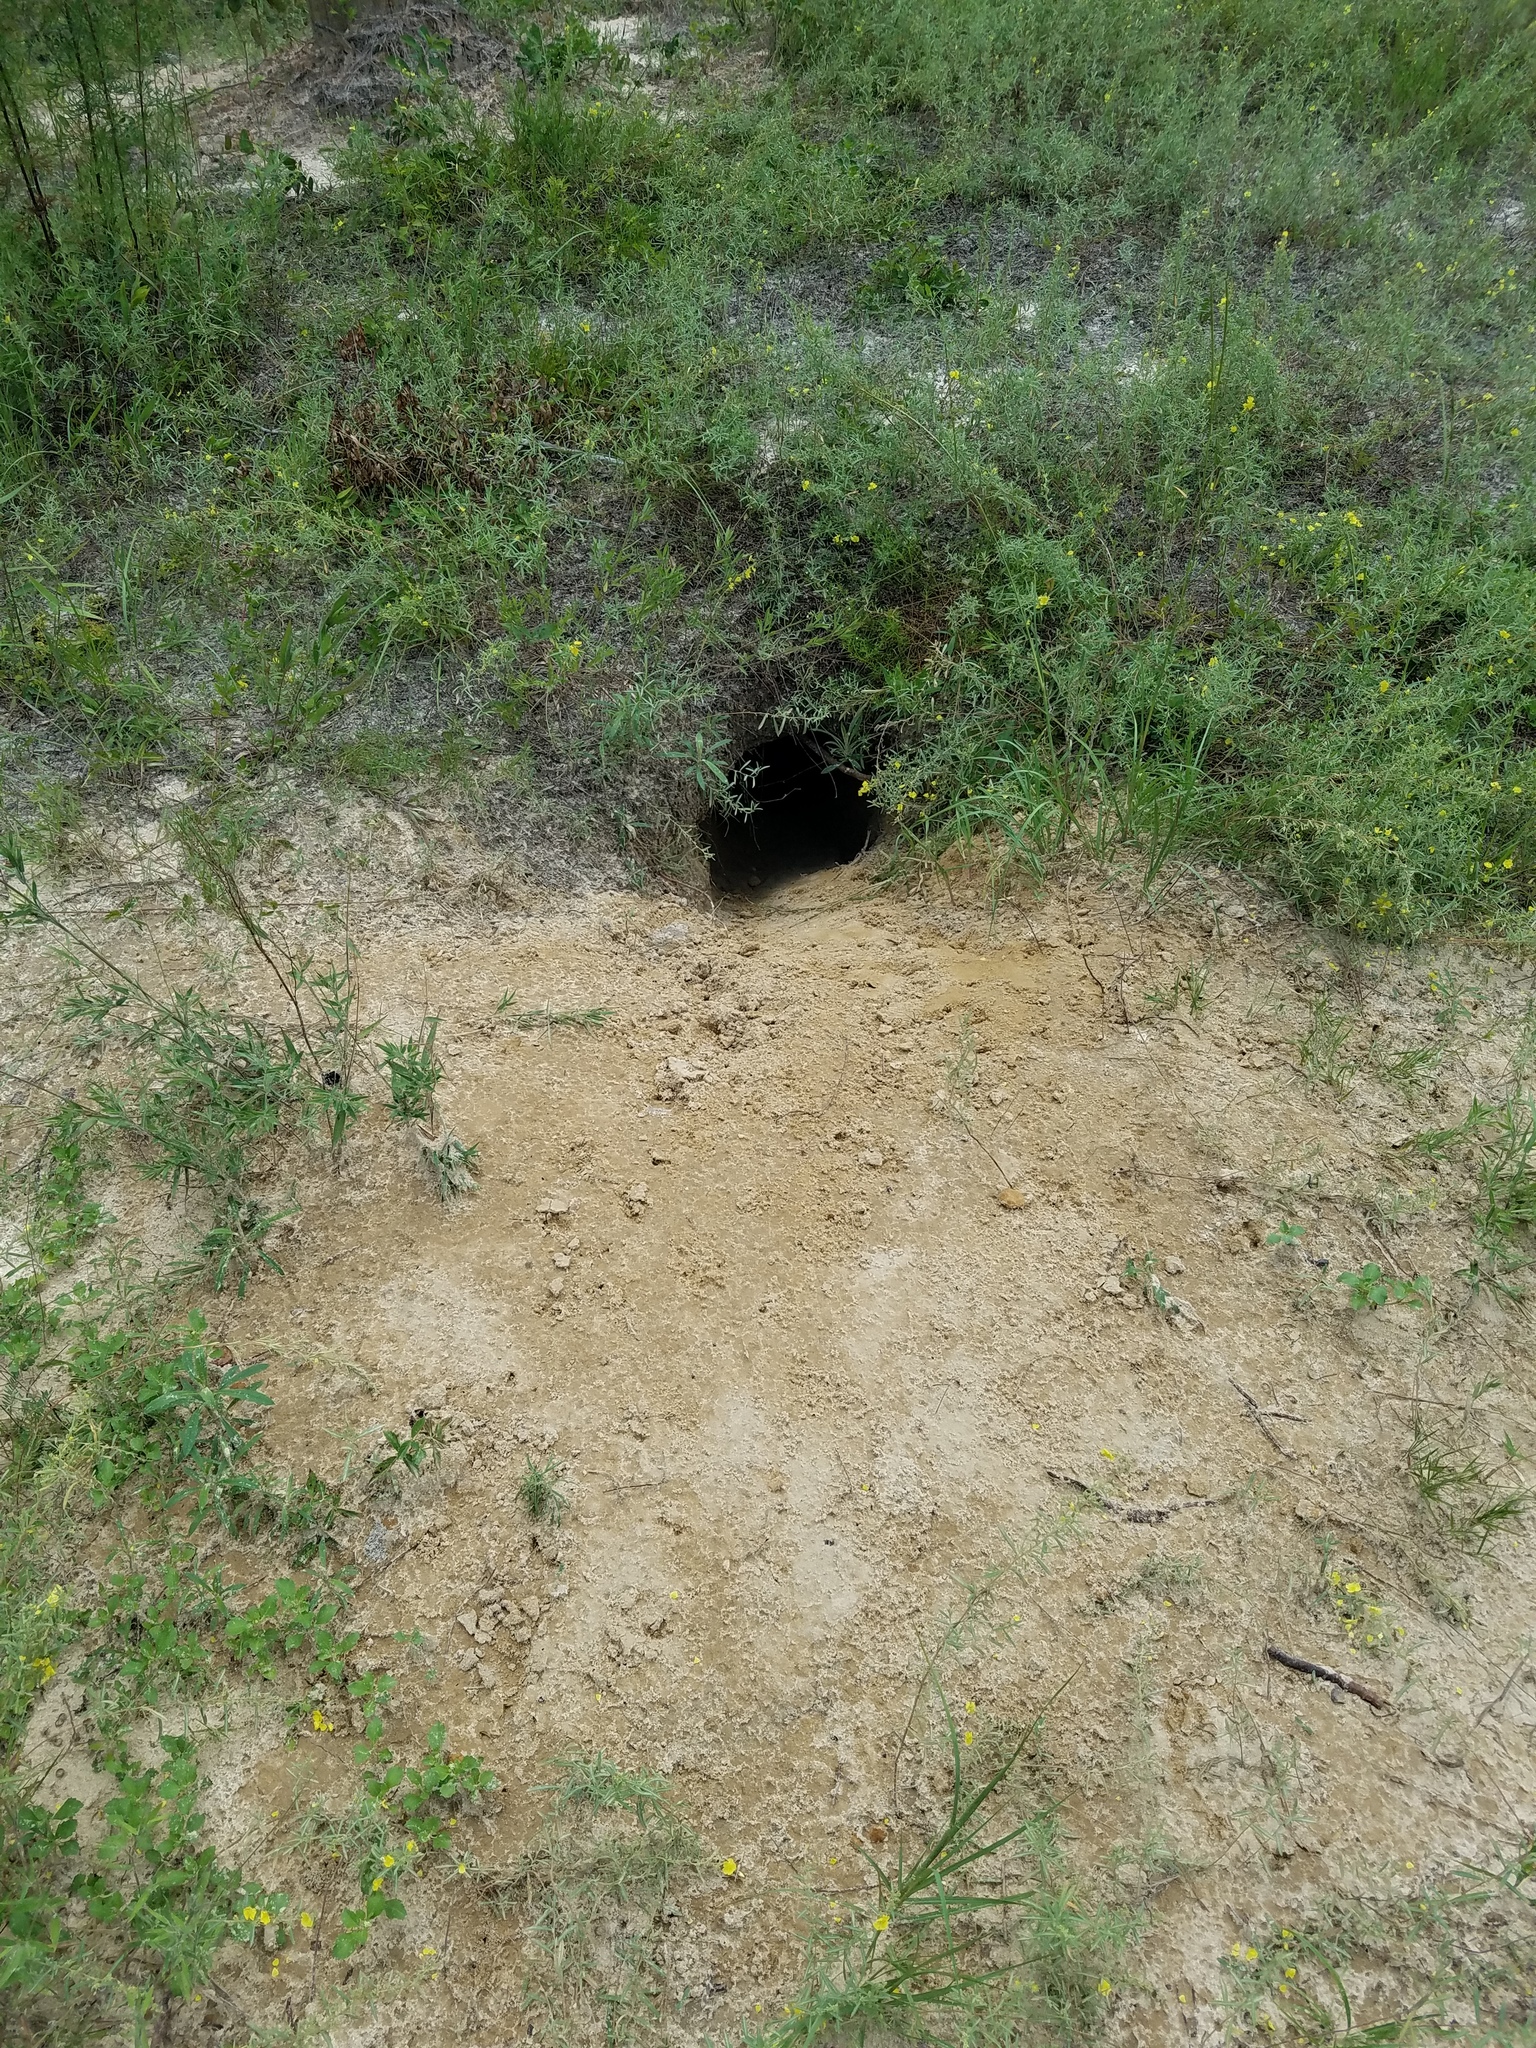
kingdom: Animalia
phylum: Chordata
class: Testudines
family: Testudinidae
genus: Gopherus
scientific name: Gopherus polyphemus
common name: Florida gopher tortoise
